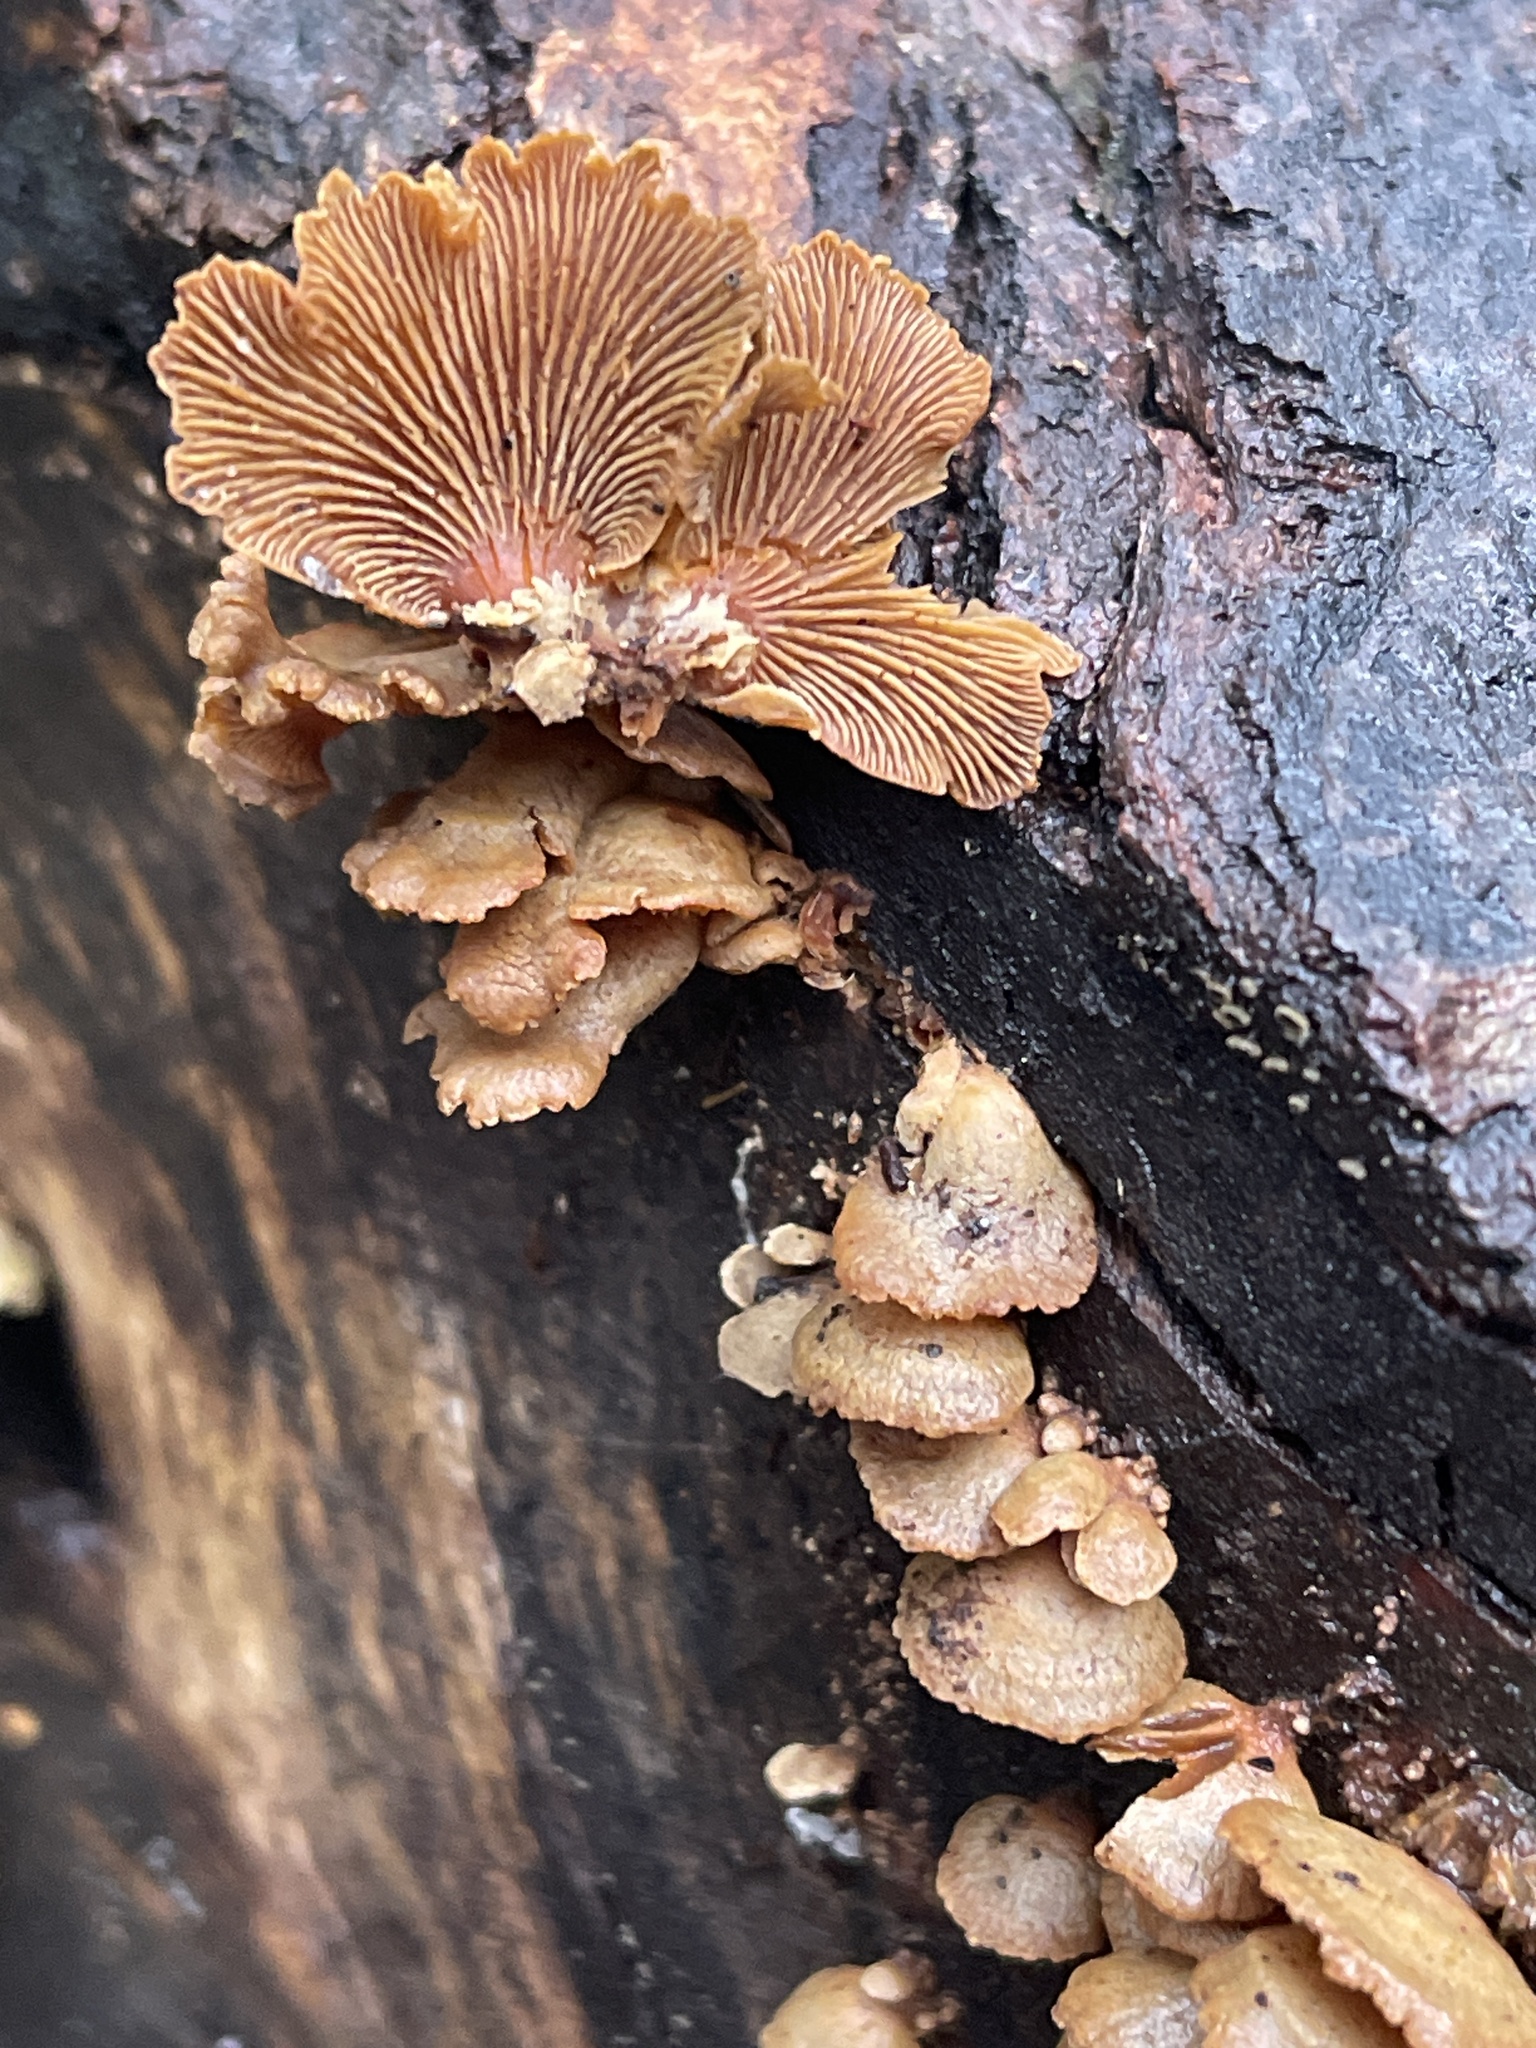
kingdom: Fungi
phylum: Basidiomycota
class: Agaricomycetes
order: Agaricales
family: Mycenaceae
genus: Panellus
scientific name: Panellus stipticus
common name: Bitter oysterling
